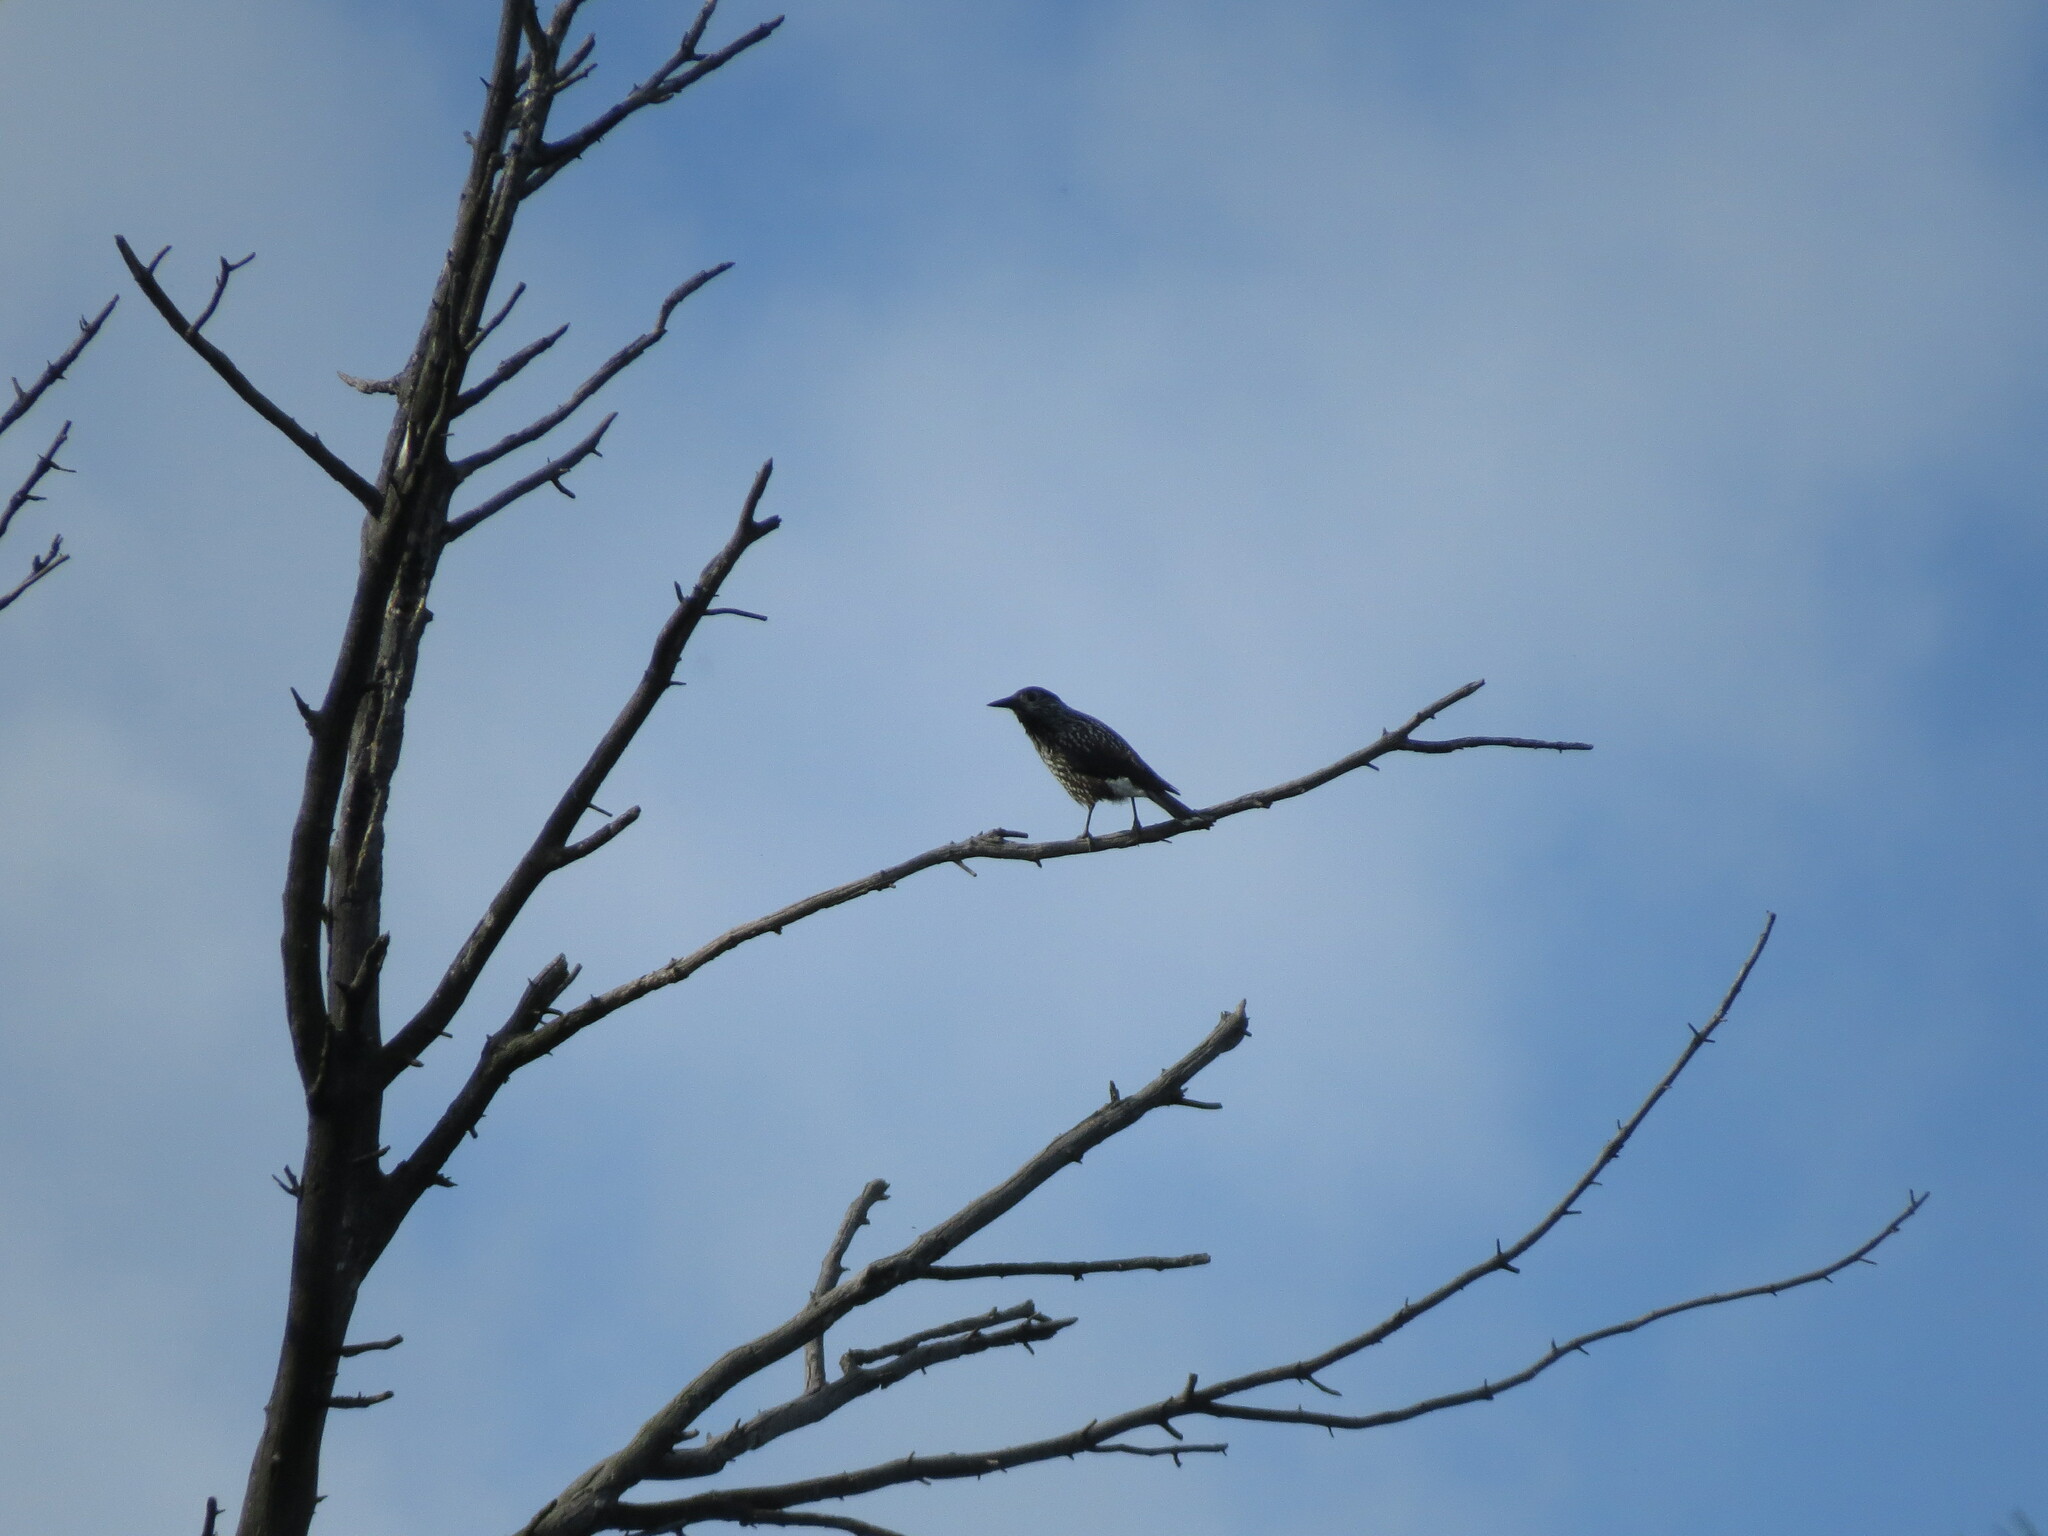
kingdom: Animalia
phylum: Chordata
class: Aves
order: Passeriformes
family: Corvidae
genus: Nucifraga
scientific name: Nucifraga caryocatactes
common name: Spotted nutcracker
